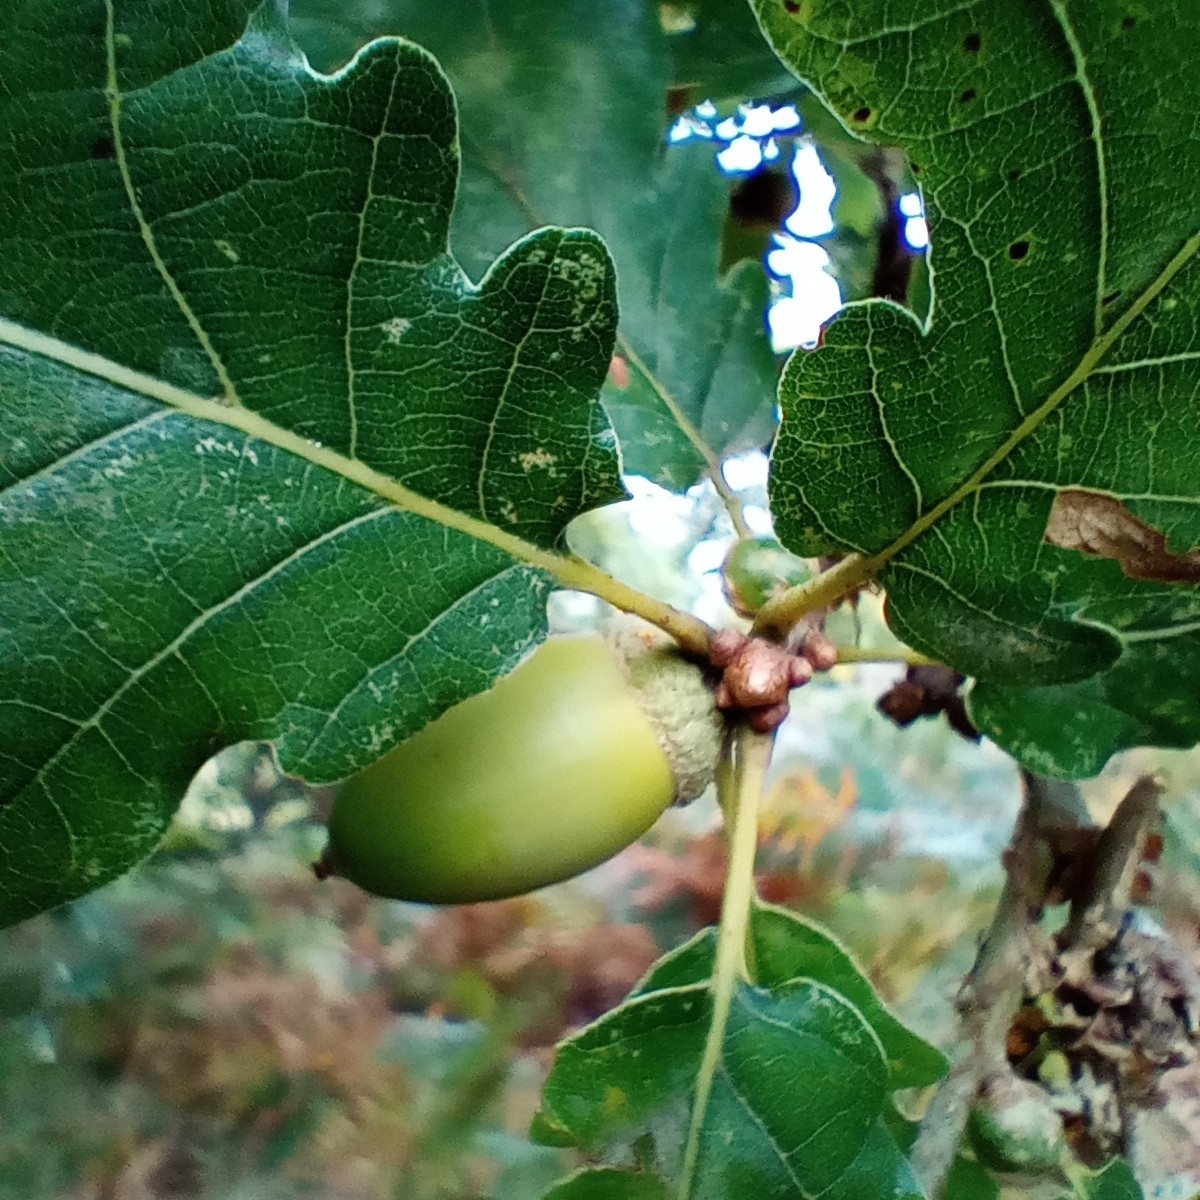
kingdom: Plantae
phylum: Tracheophyta
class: Magnoliopsida
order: Fagales
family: Fagaceae
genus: Quercus
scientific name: Quercus petraea
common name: Sessile oak
